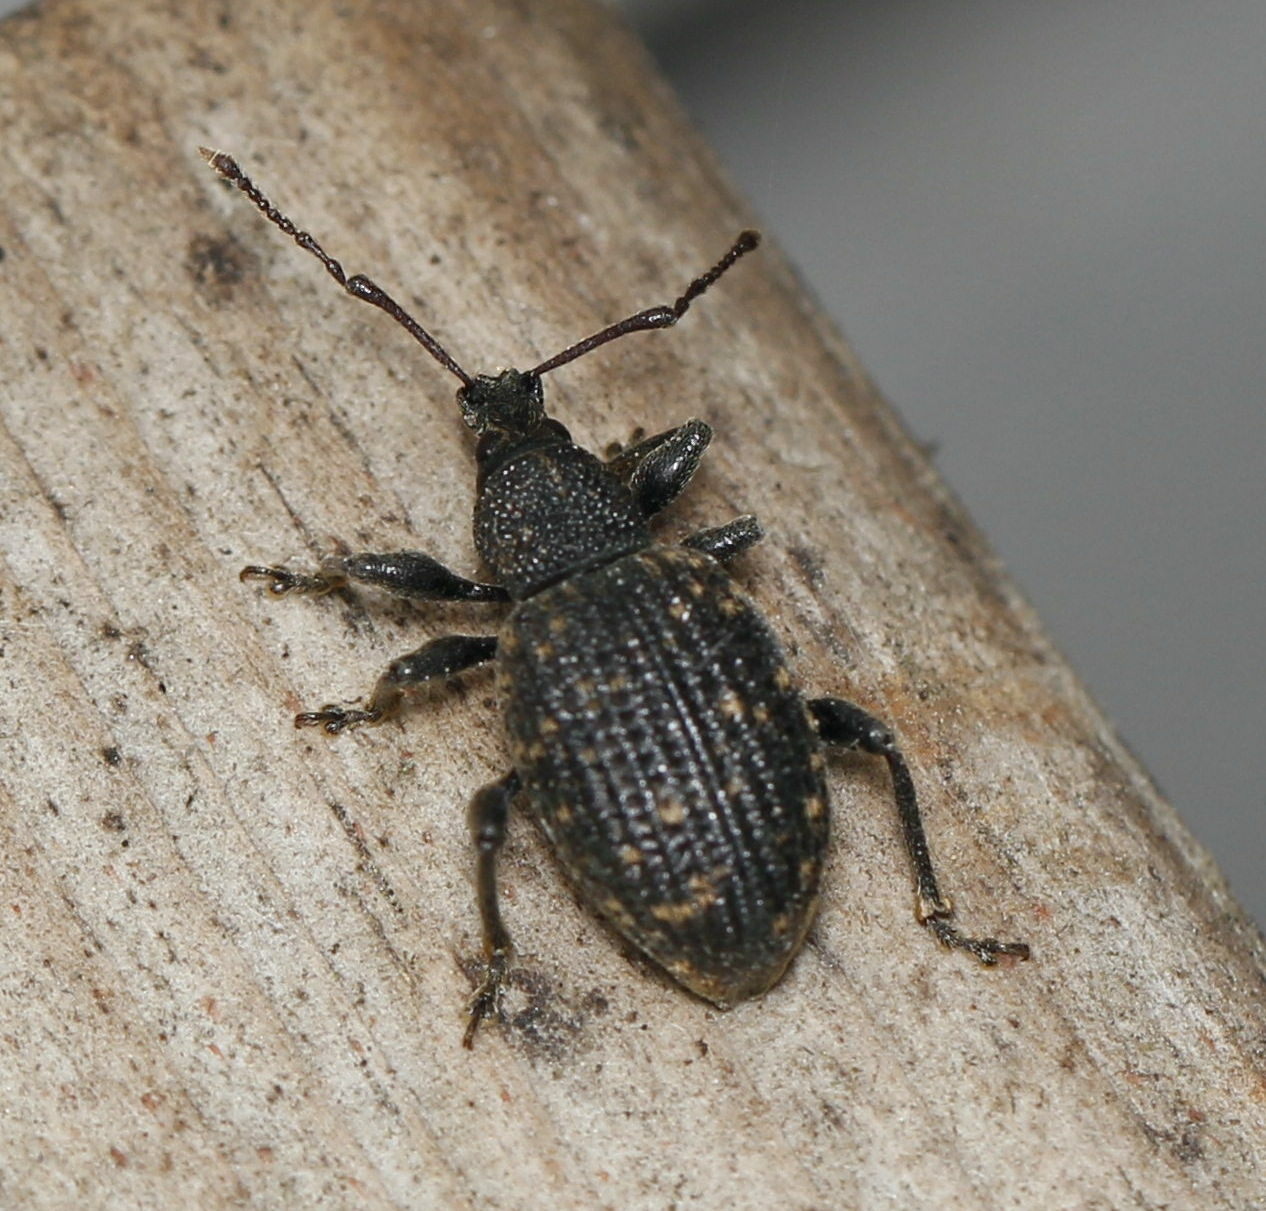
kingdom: Animalia
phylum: Arthropoda
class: Insecta
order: Coleoptera
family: Curculionidae
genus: Otiorhynchus
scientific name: Otiorhynchus sulcatus
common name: Black vine weevil
